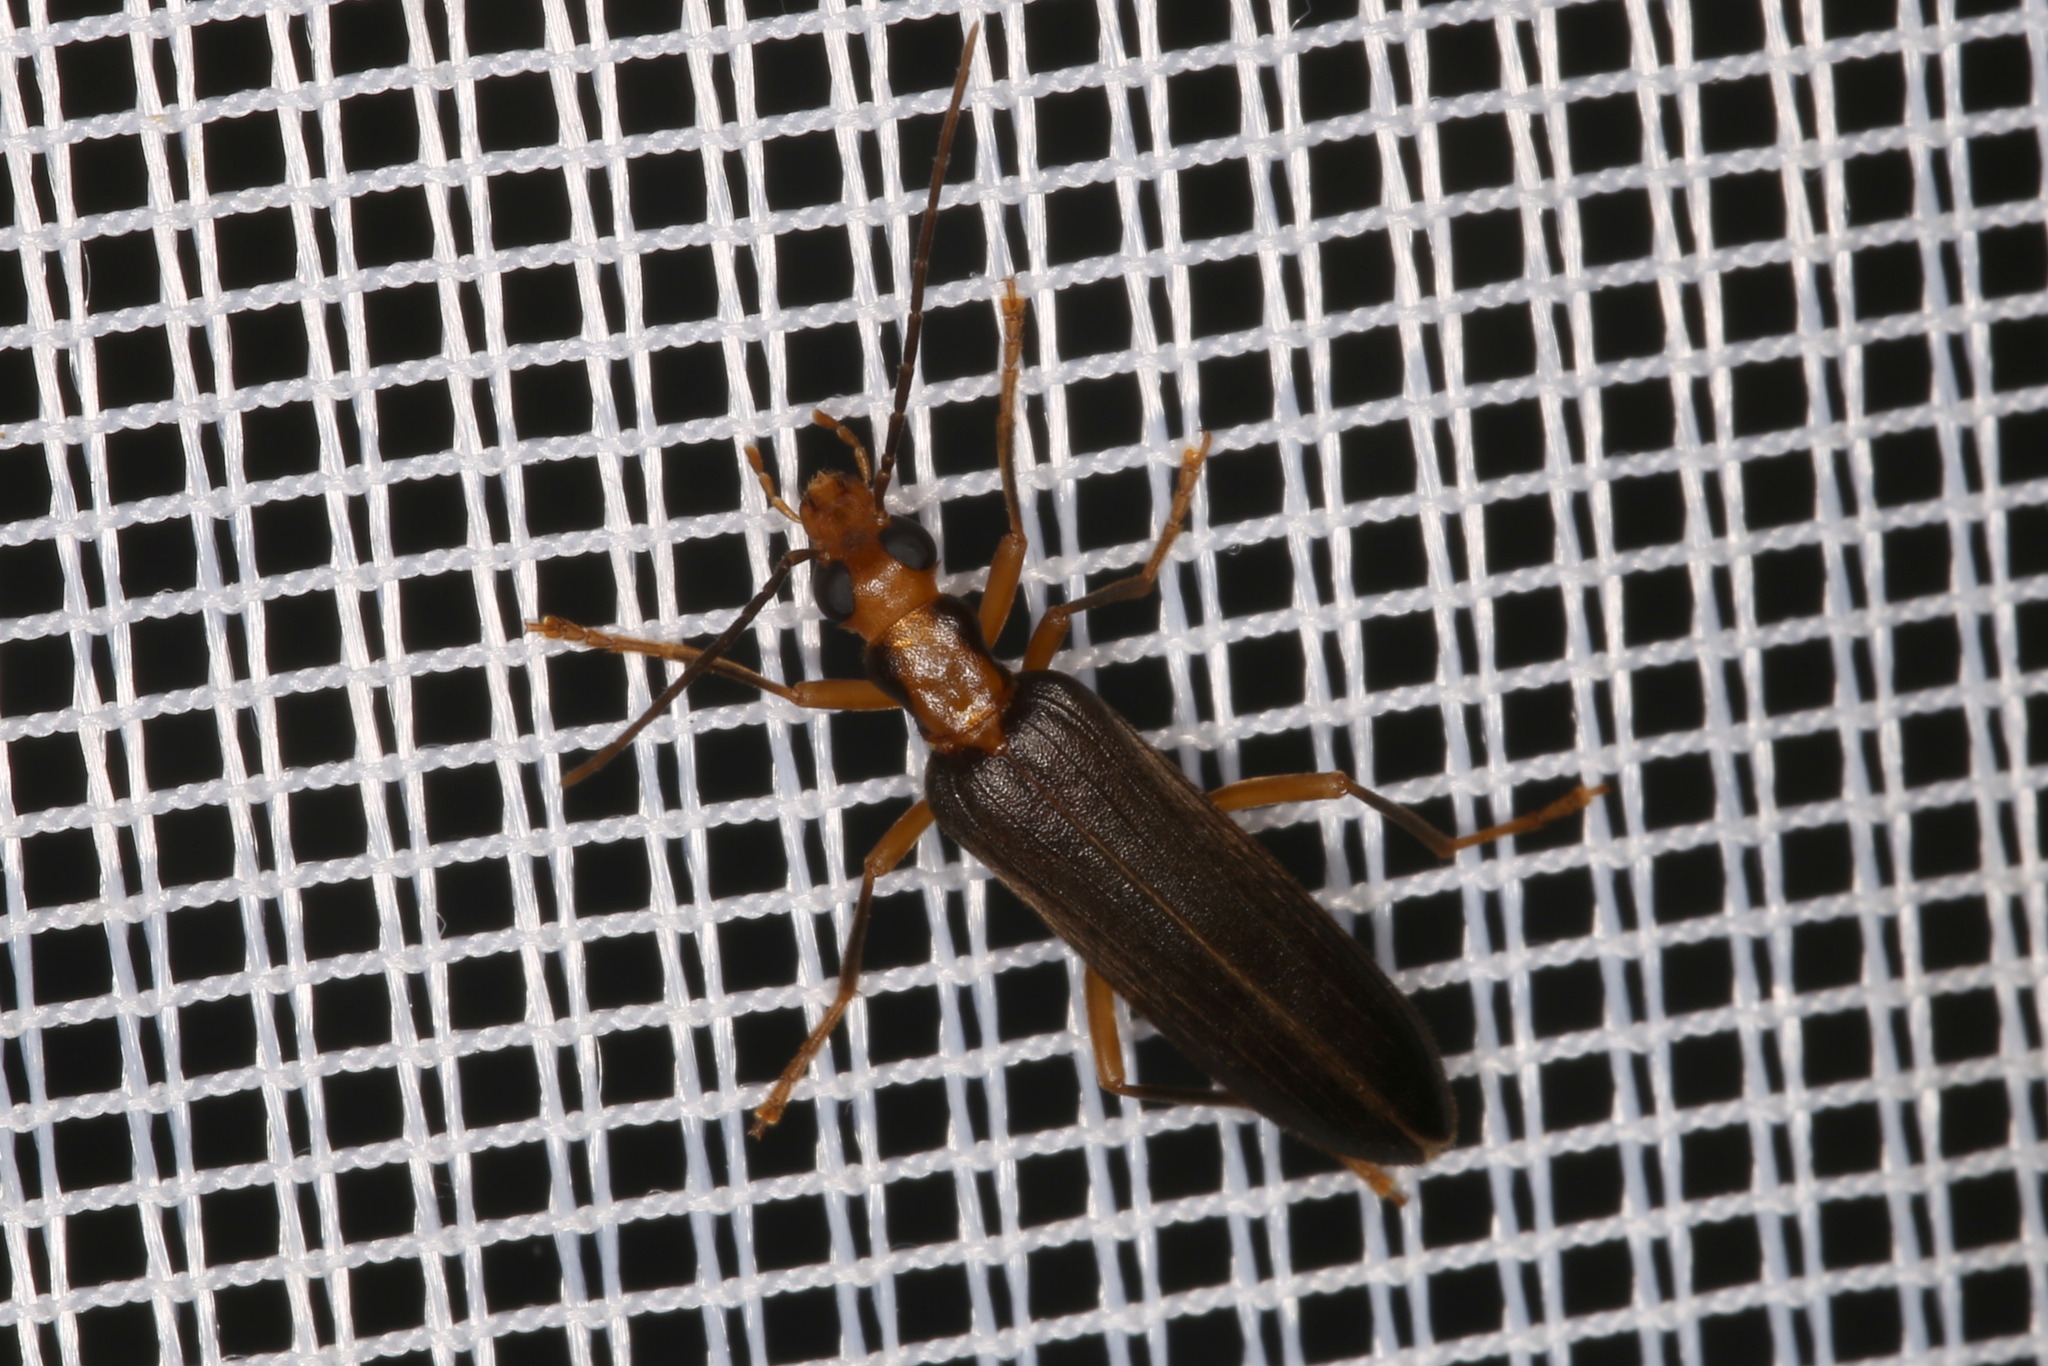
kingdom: Animalia
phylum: Arthropoda
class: Insecta
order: Coleoptera
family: Oedemeridae
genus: Nacerdes
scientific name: Nacerdes carniolica
